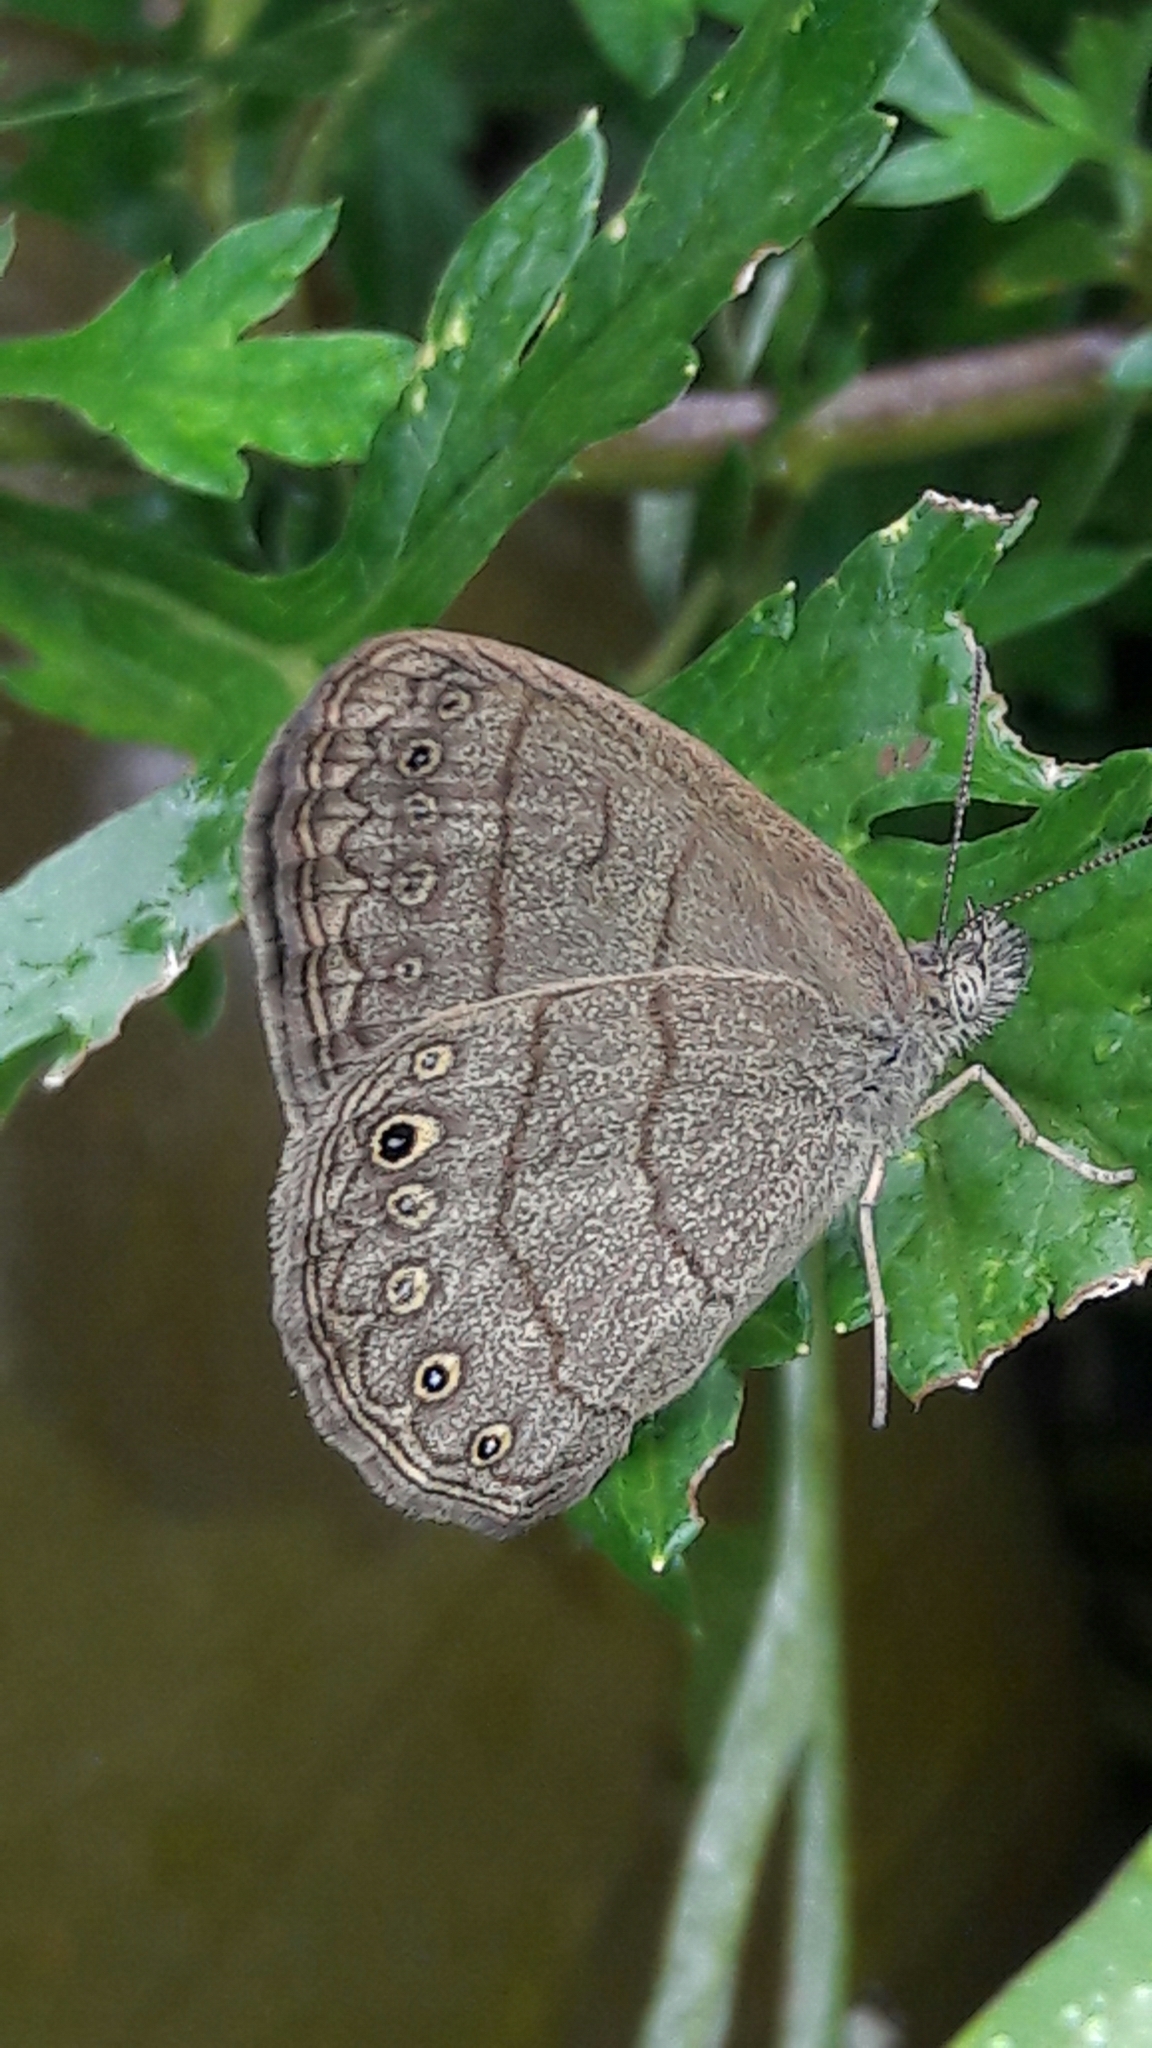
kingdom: Animalia
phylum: Arthropoda
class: Insecta
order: Lepidoptera
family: Nymphalidae
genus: Hermeuptychia
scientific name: Hermeuptychia hermes
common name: Hermes satyr
